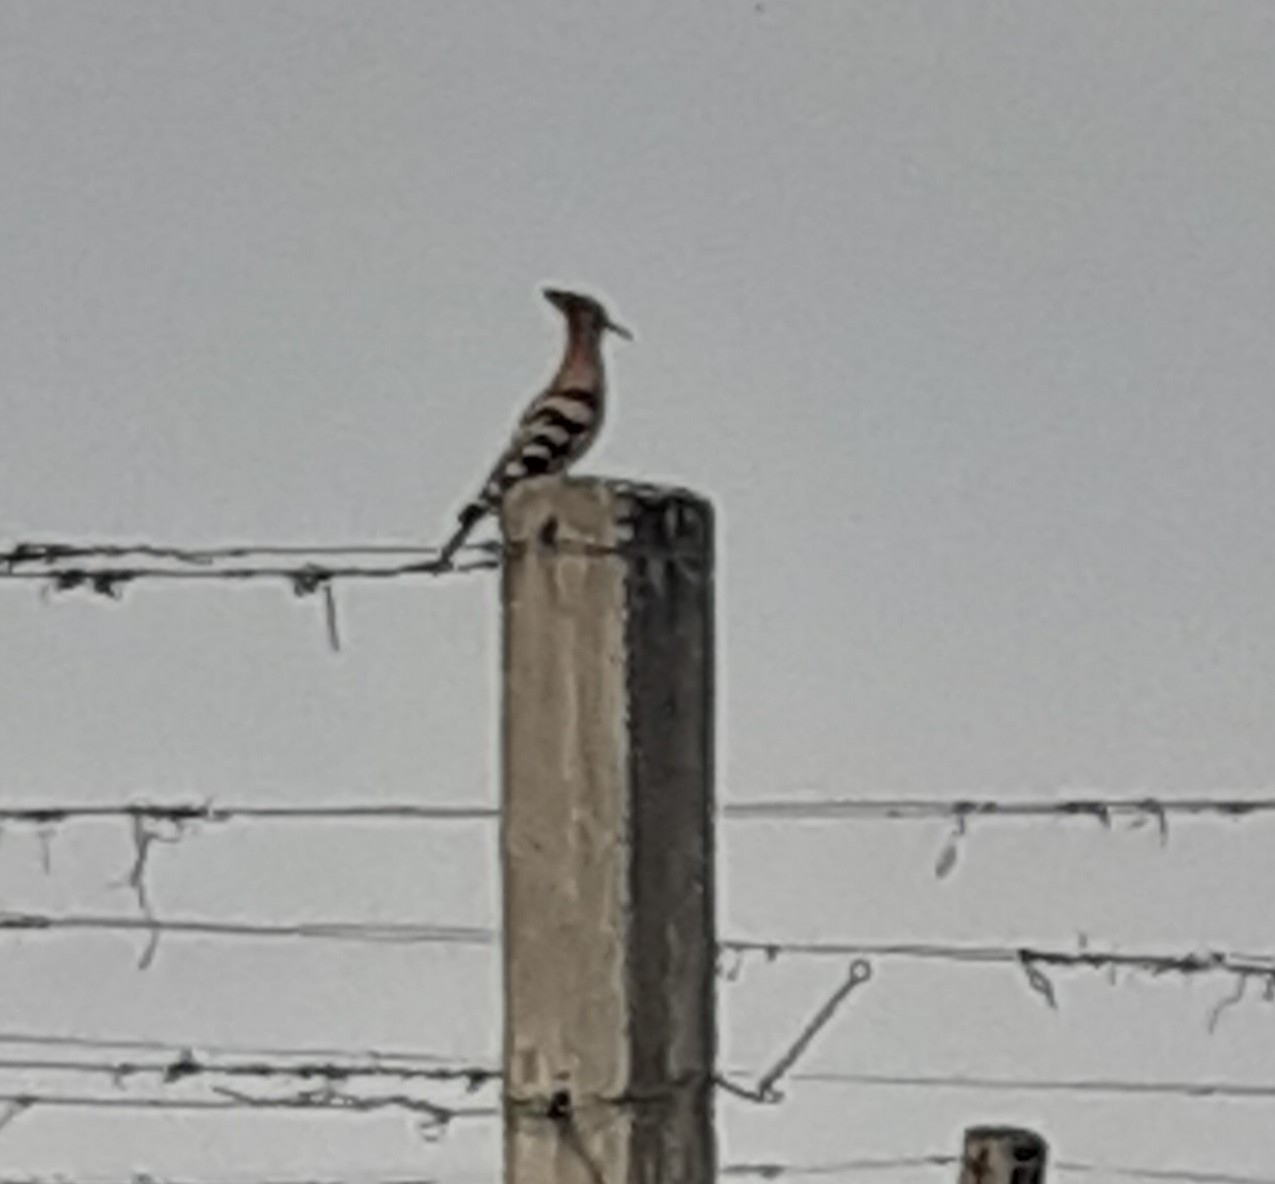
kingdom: Animalia
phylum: Chordata
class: Aves
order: Bucerotiformes
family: Upupidae
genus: Upupa
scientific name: Upupa epops
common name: Eurasian hoopoe
